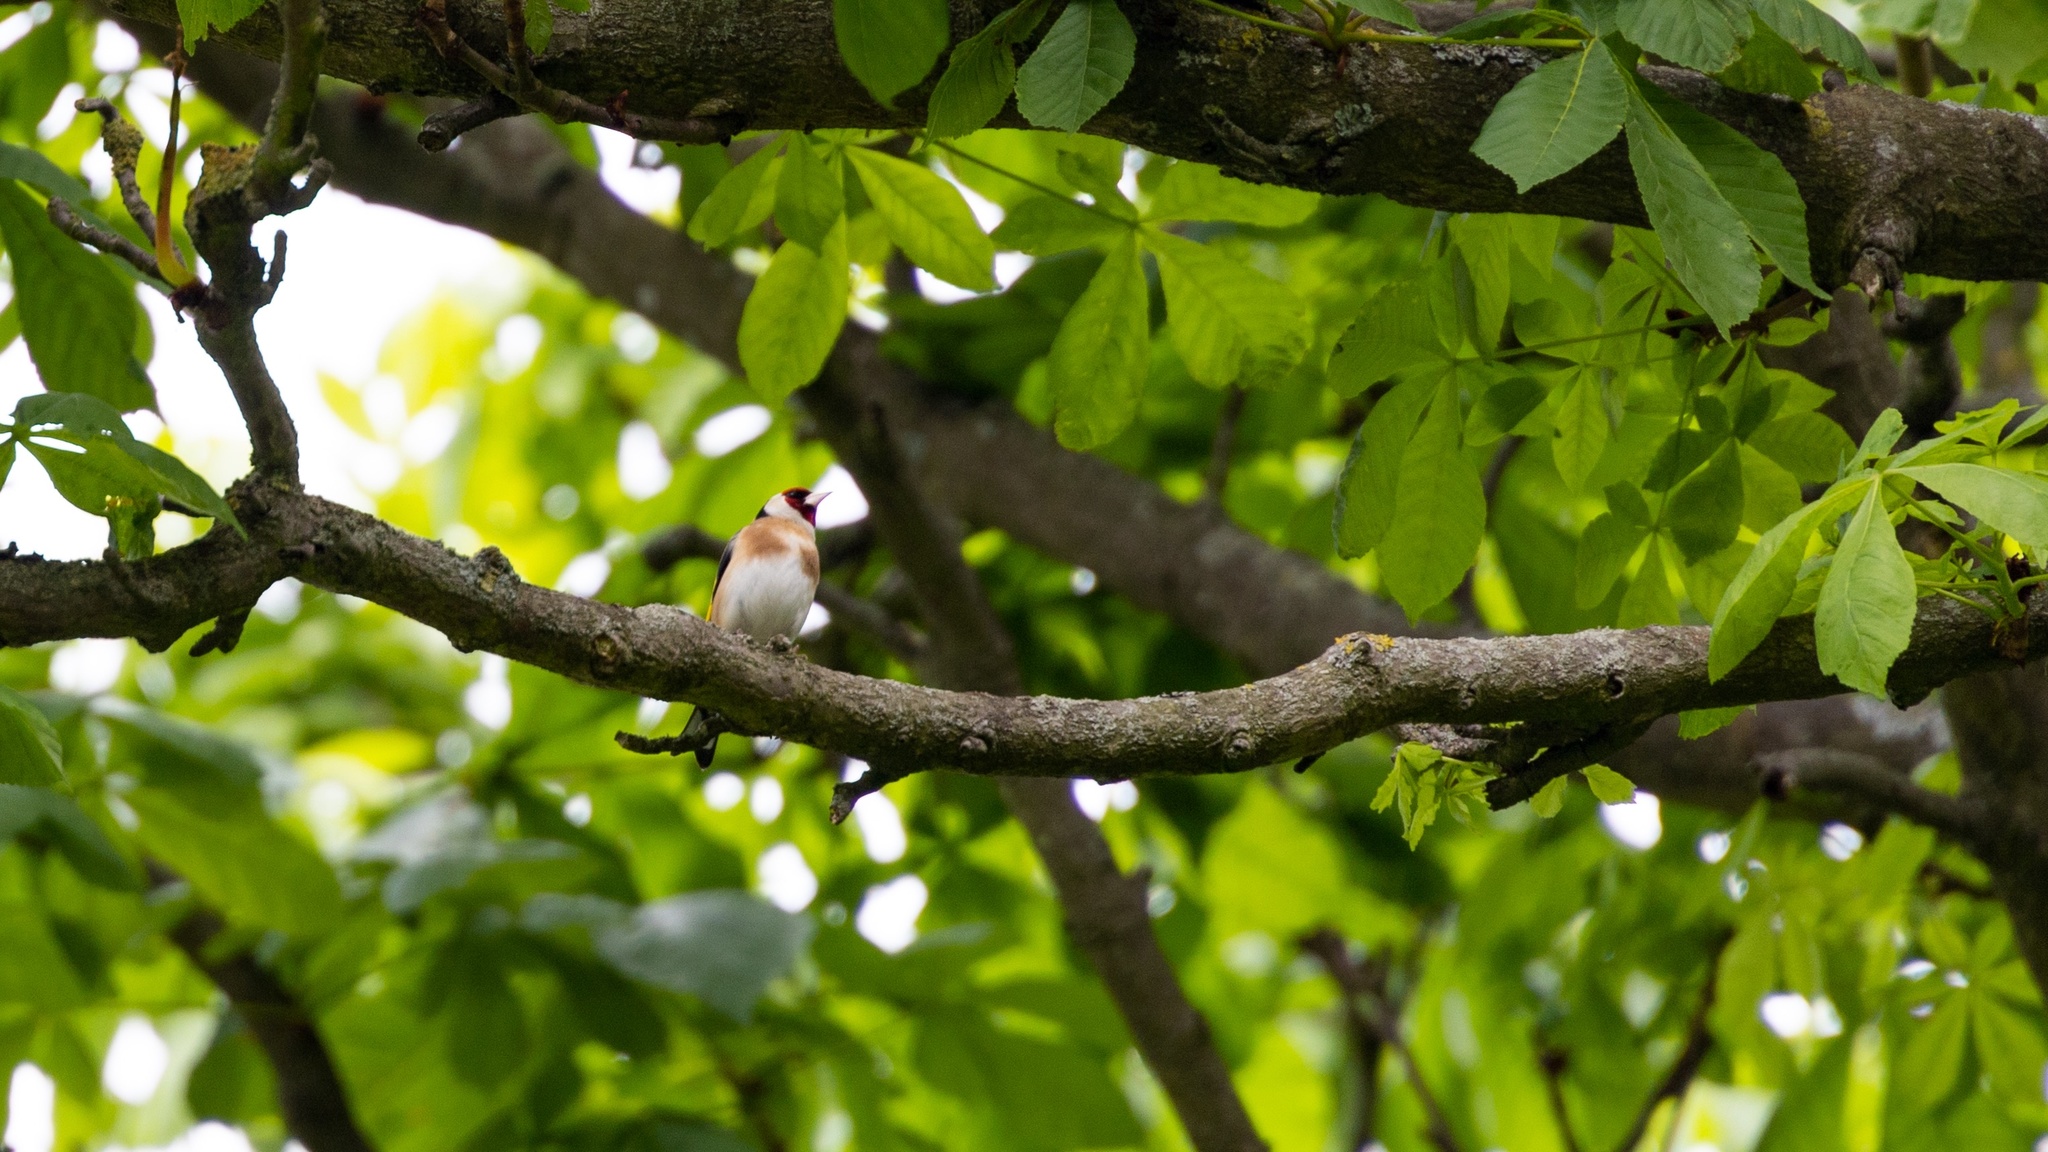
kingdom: Animalia
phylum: Chordata
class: Aves
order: Passeriformes
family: Fringillidae
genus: Carduelis
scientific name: Carduelis carduelis
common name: European goldfinch
